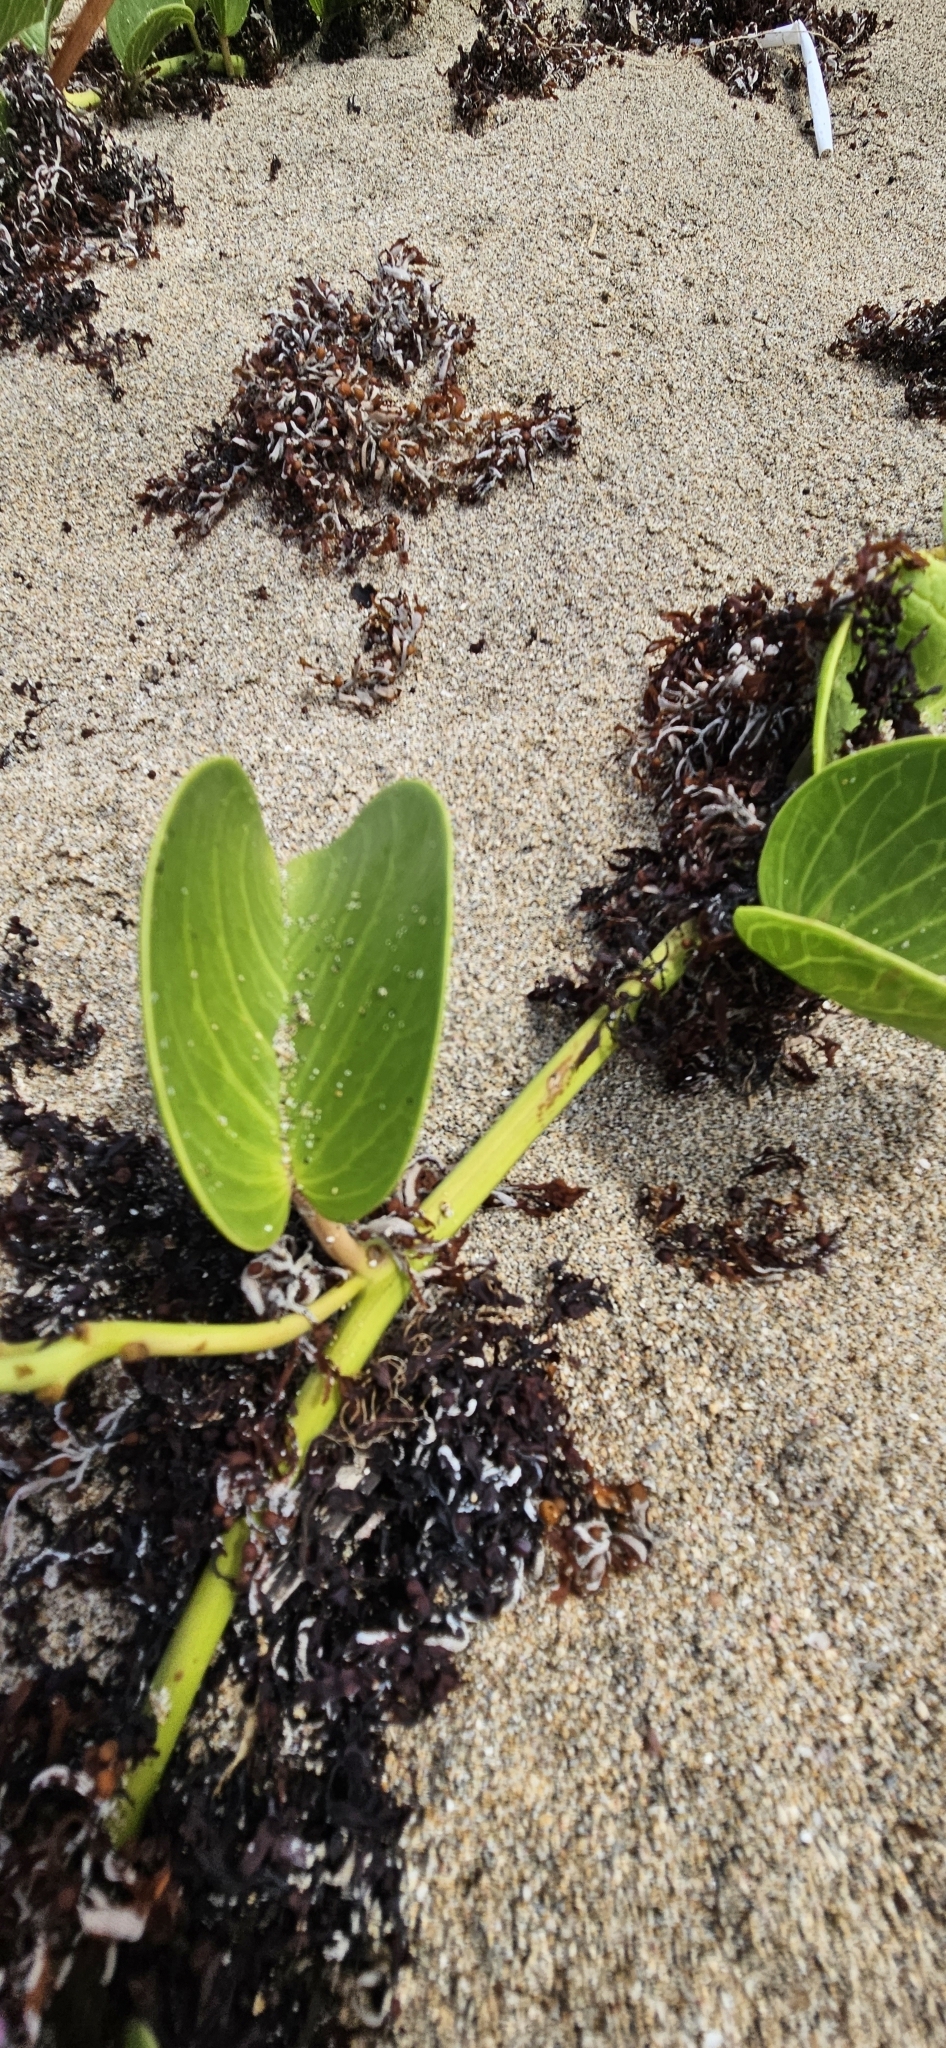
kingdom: Plantae
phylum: Tracheophyta
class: Magnoliopsida
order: Solanales
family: Convolvulaceae
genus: Ipomoea
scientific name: Ipomoea pes-caprae
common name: Beach morning glory
